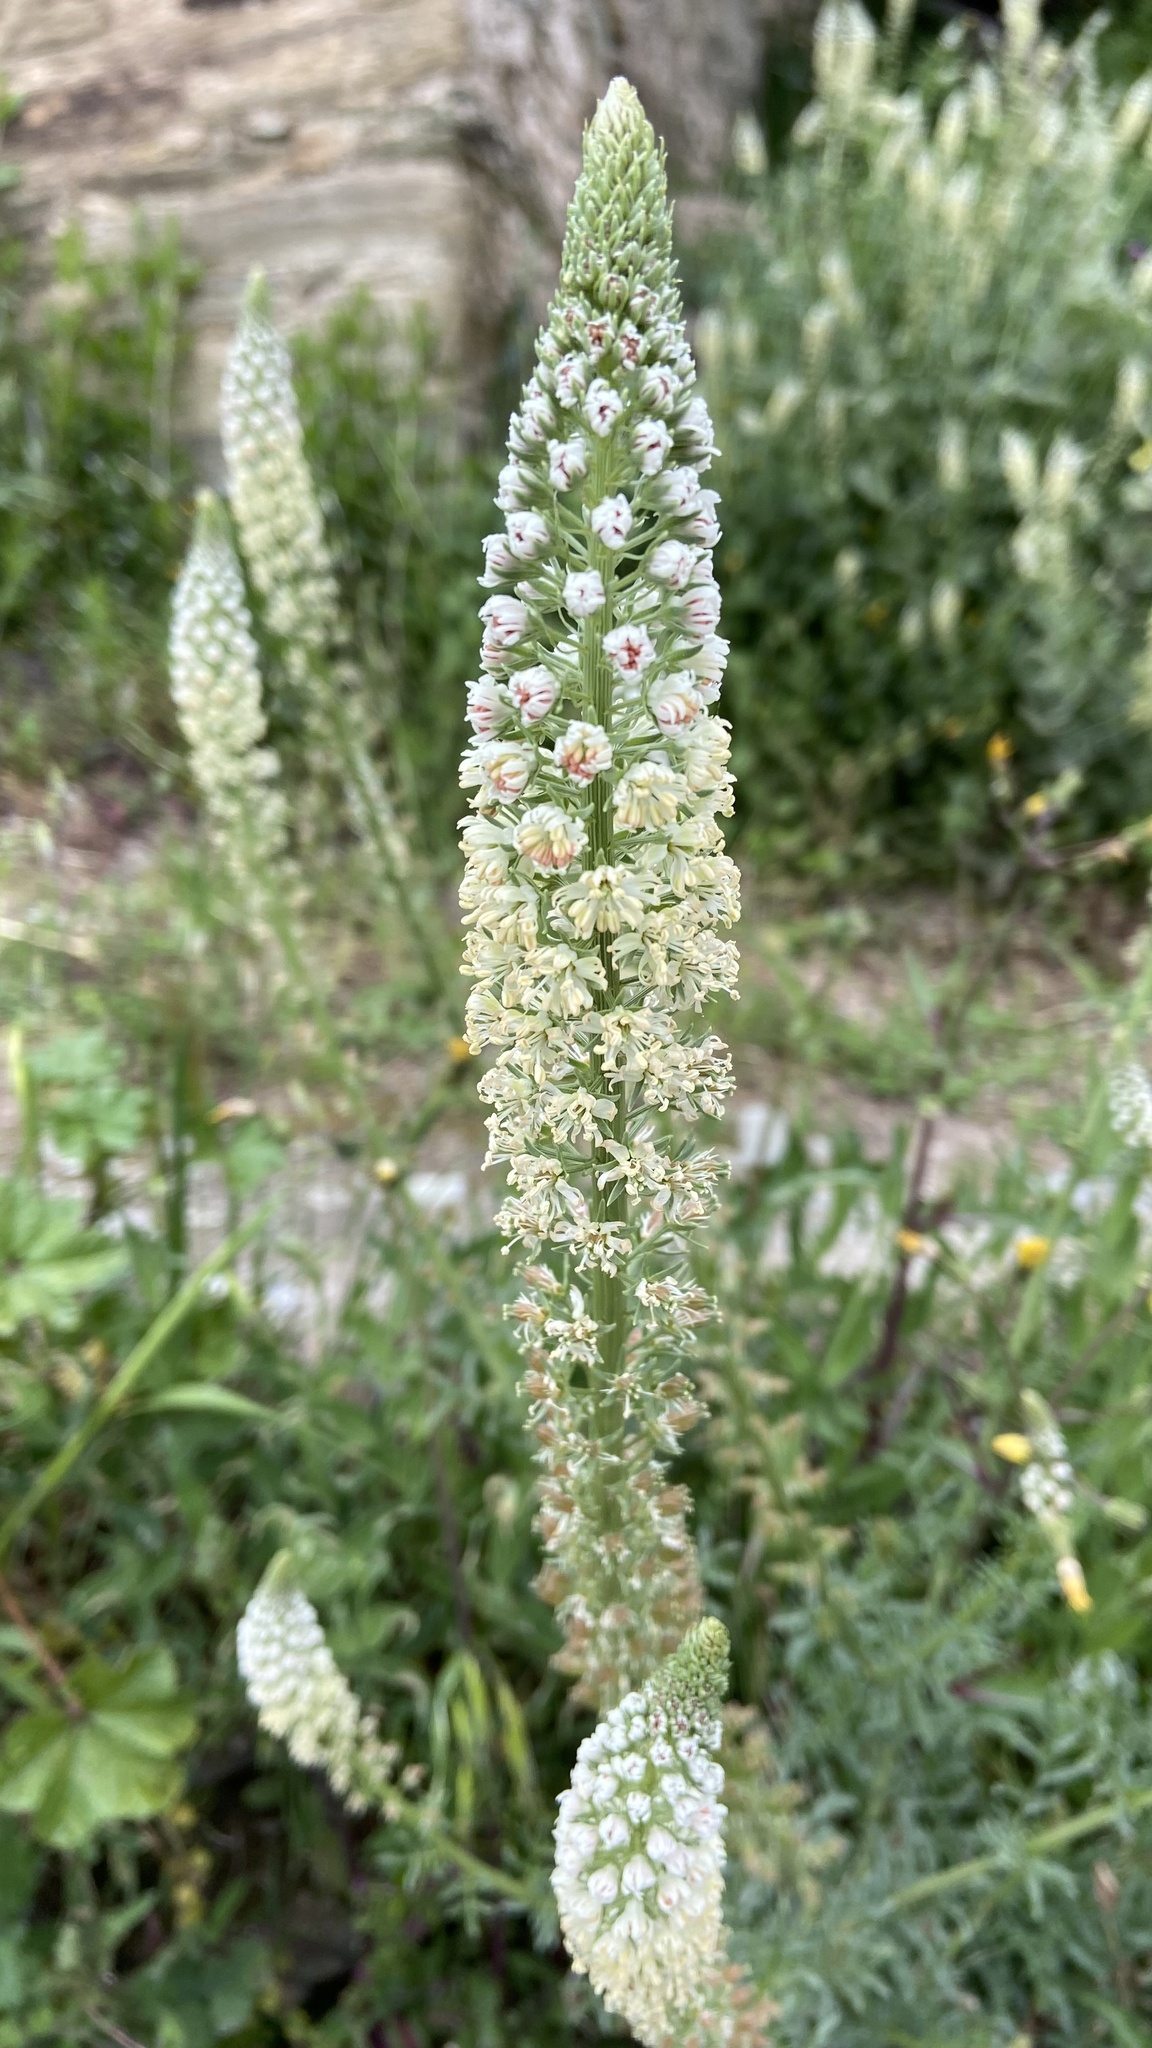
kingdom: Plantae
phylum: Tracheophyta
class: Magnoliopsida
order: Brassicales
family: Resedaceae
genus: Reseda
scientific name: Reseda alba
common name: White mignonette
